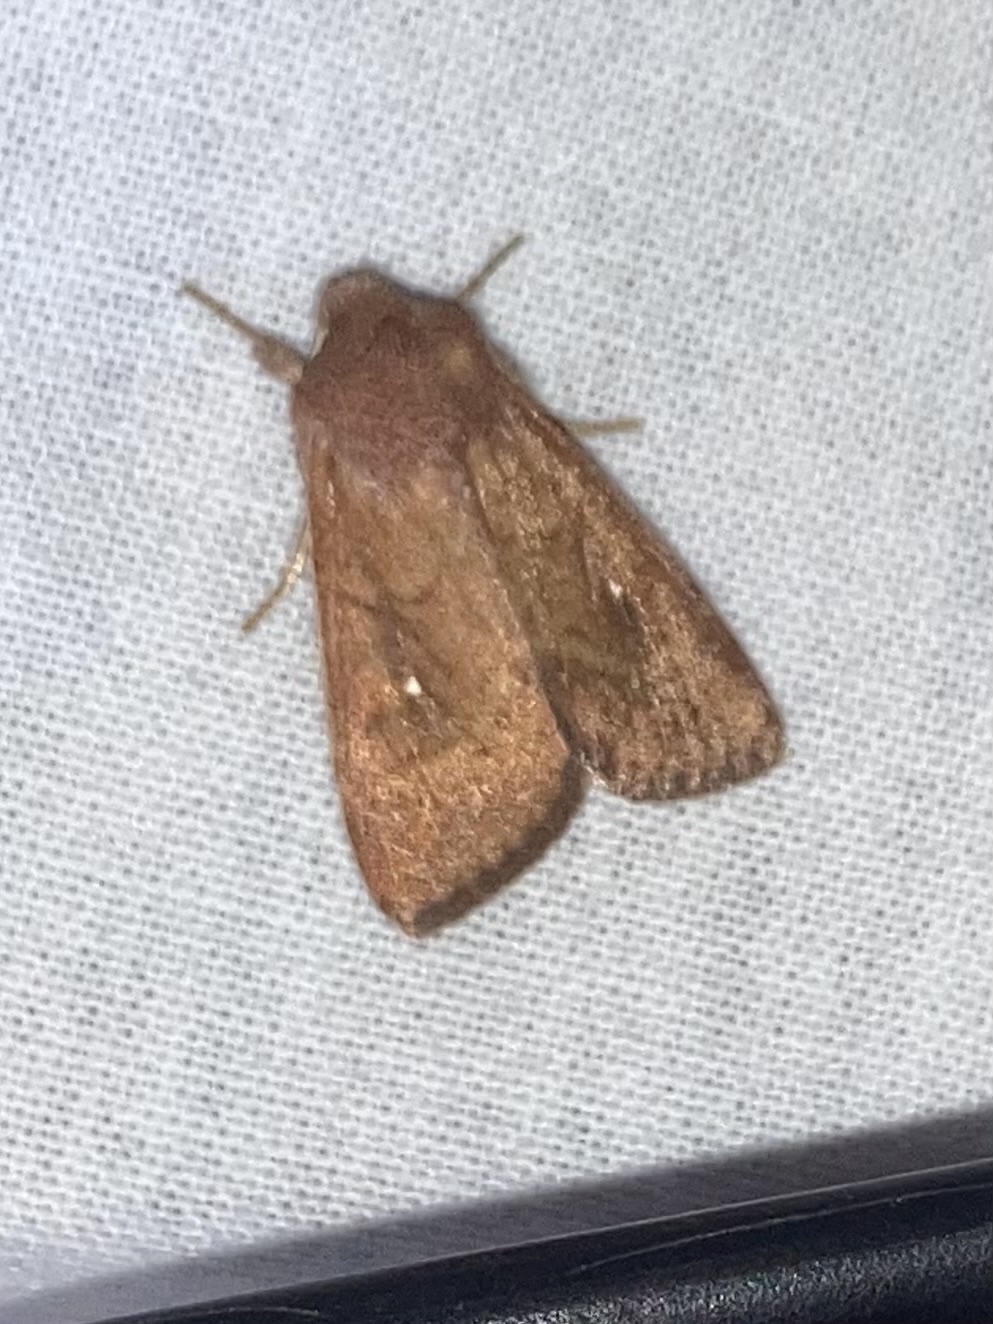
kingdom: Animalia
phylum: Arthropoda
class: Insecta
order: Lepidoptera
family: Noctuidae
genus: Mythimna
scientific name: Mythimna albipuncta
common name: White-point
